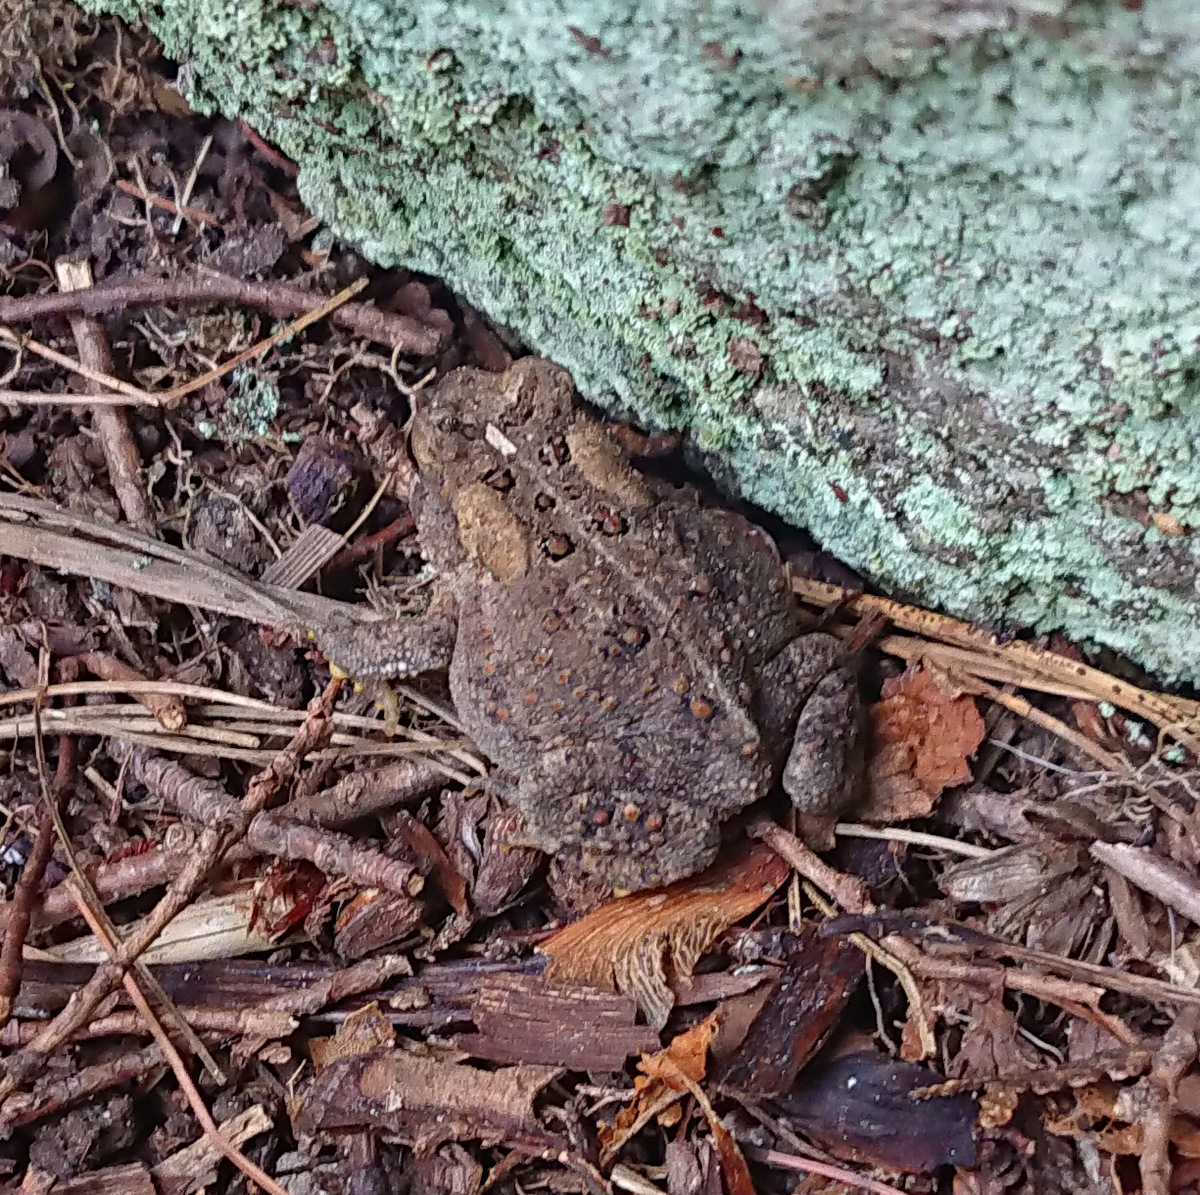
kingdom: Animalia
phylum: Chordata
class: Amphibia
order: Anura
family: Bufonidae
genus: Anaxyrus
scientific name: Anaxyrus americanus
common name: American toad
